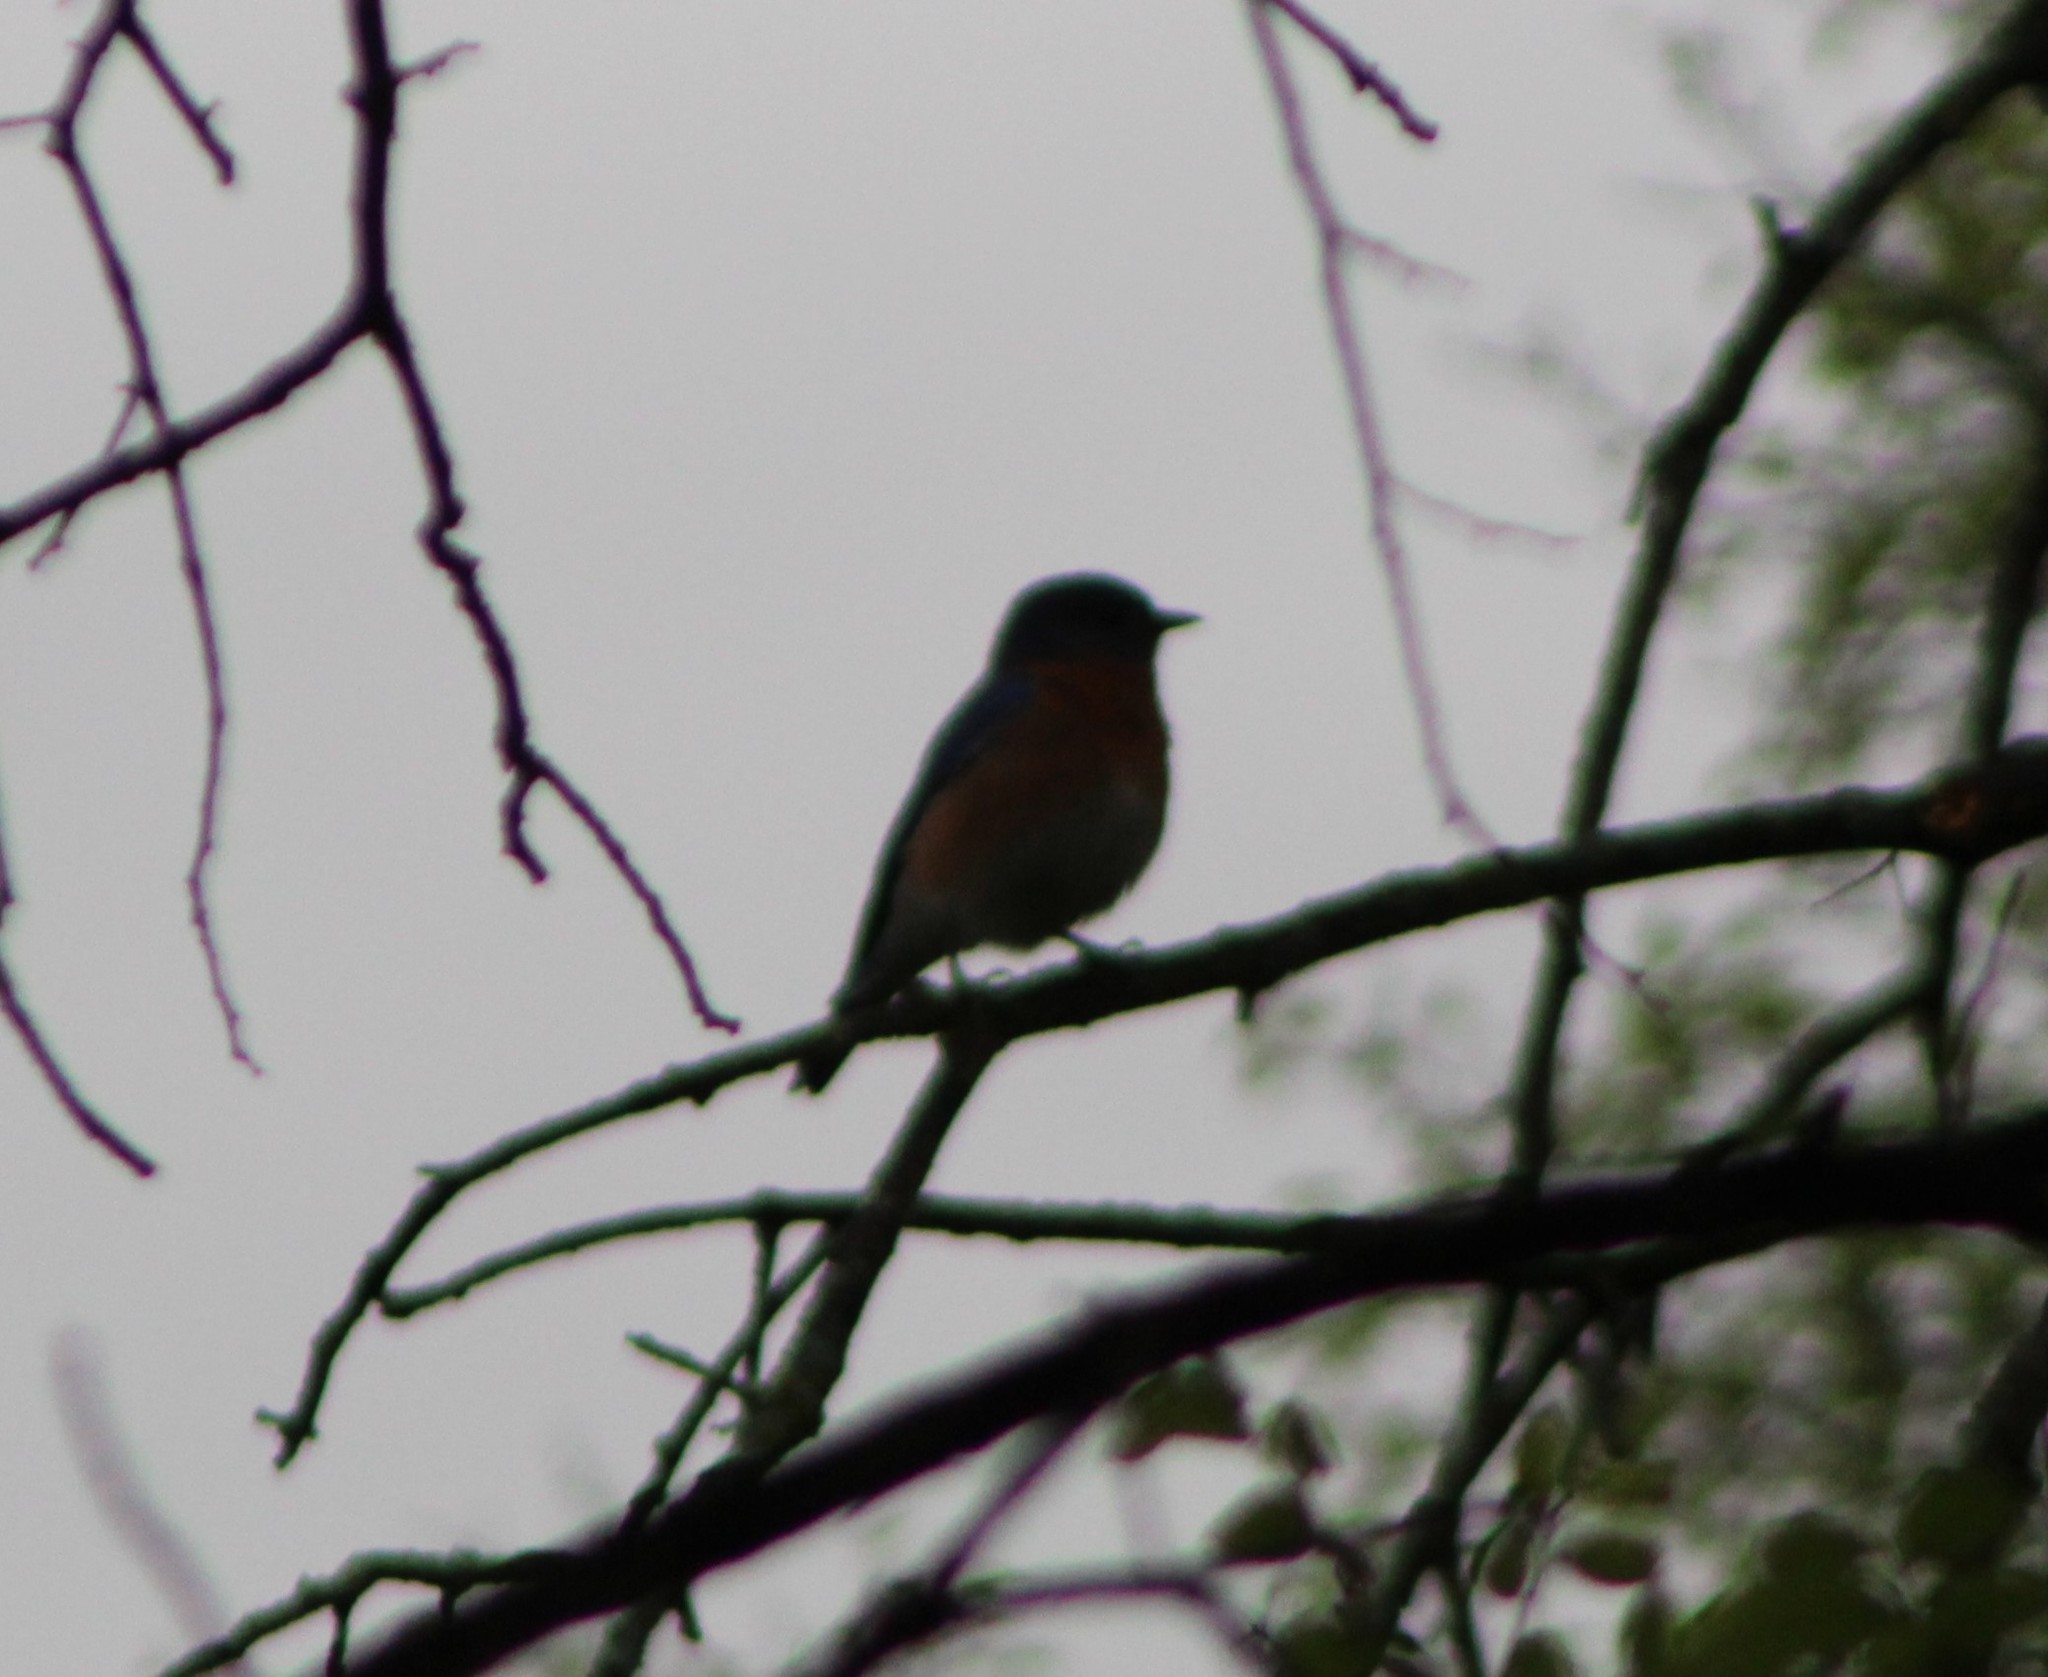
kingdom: Animalia
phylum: Chordata
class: Aves
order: Passeriformes
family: Turdidae
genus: Sialia
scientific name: Sialia sialis
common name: Eastern bluebird
